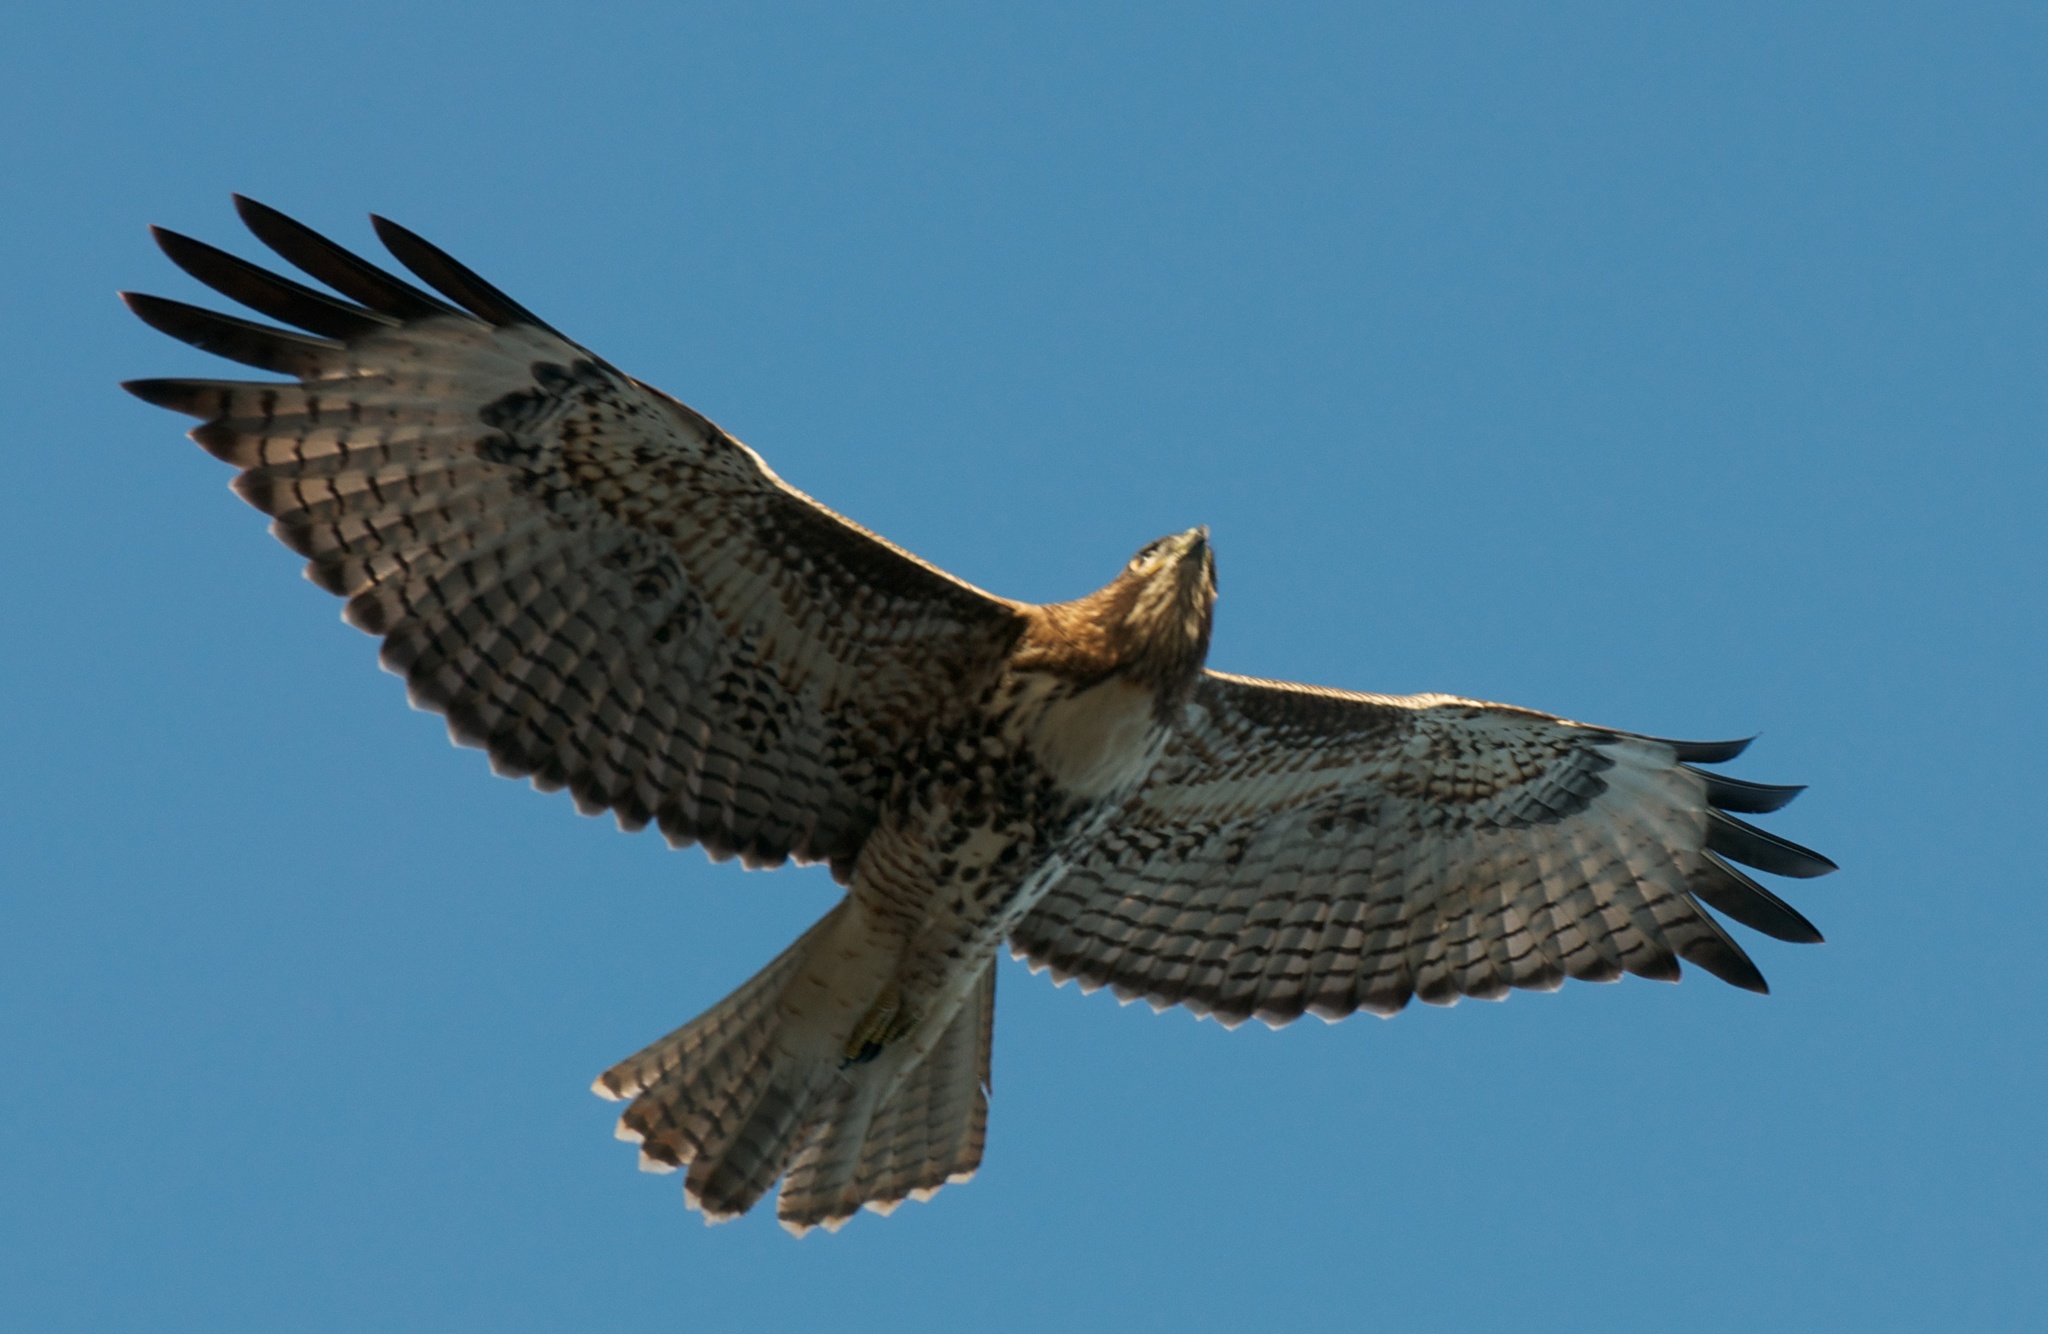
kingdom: Animalia
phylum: Chordata
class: Aves
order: Accipitriformes
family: Accipitridae
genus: Buteo
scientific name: Buteo jamaicensis
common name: Red-tailed hawk
